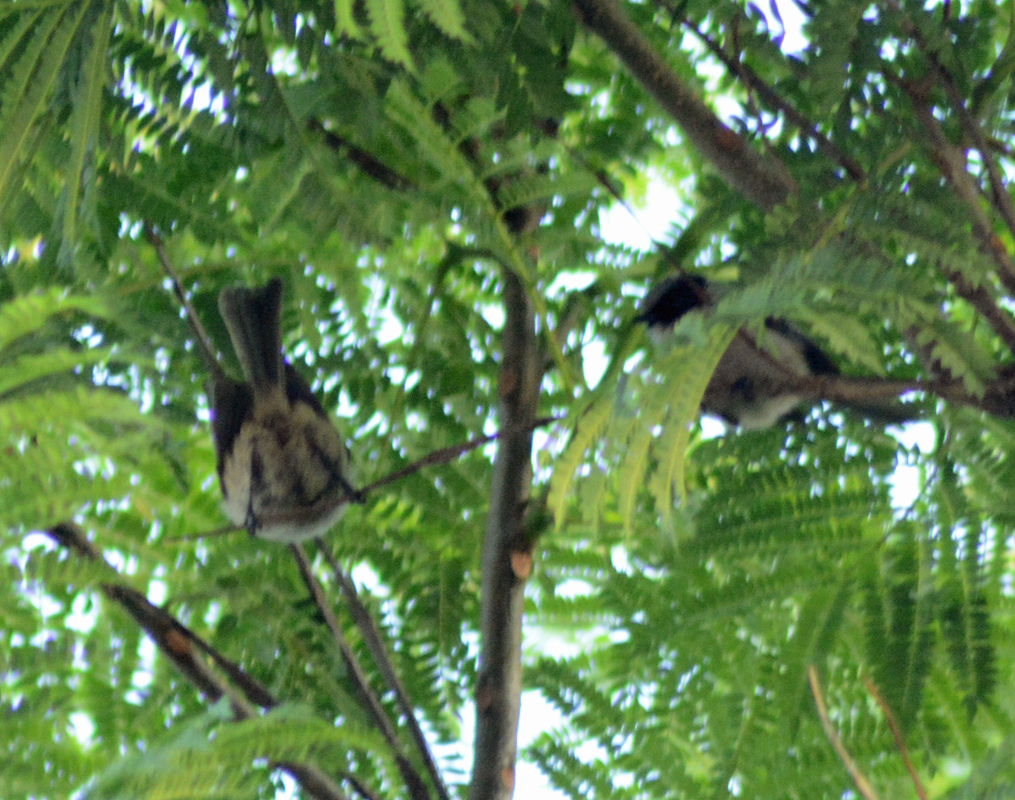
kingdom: Animalia
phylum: Chordata
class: Aves
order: Passeriformes
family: Aegithalidae
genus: Psaltriparus
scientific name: Psaltriparus minimus
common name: American bushtit
